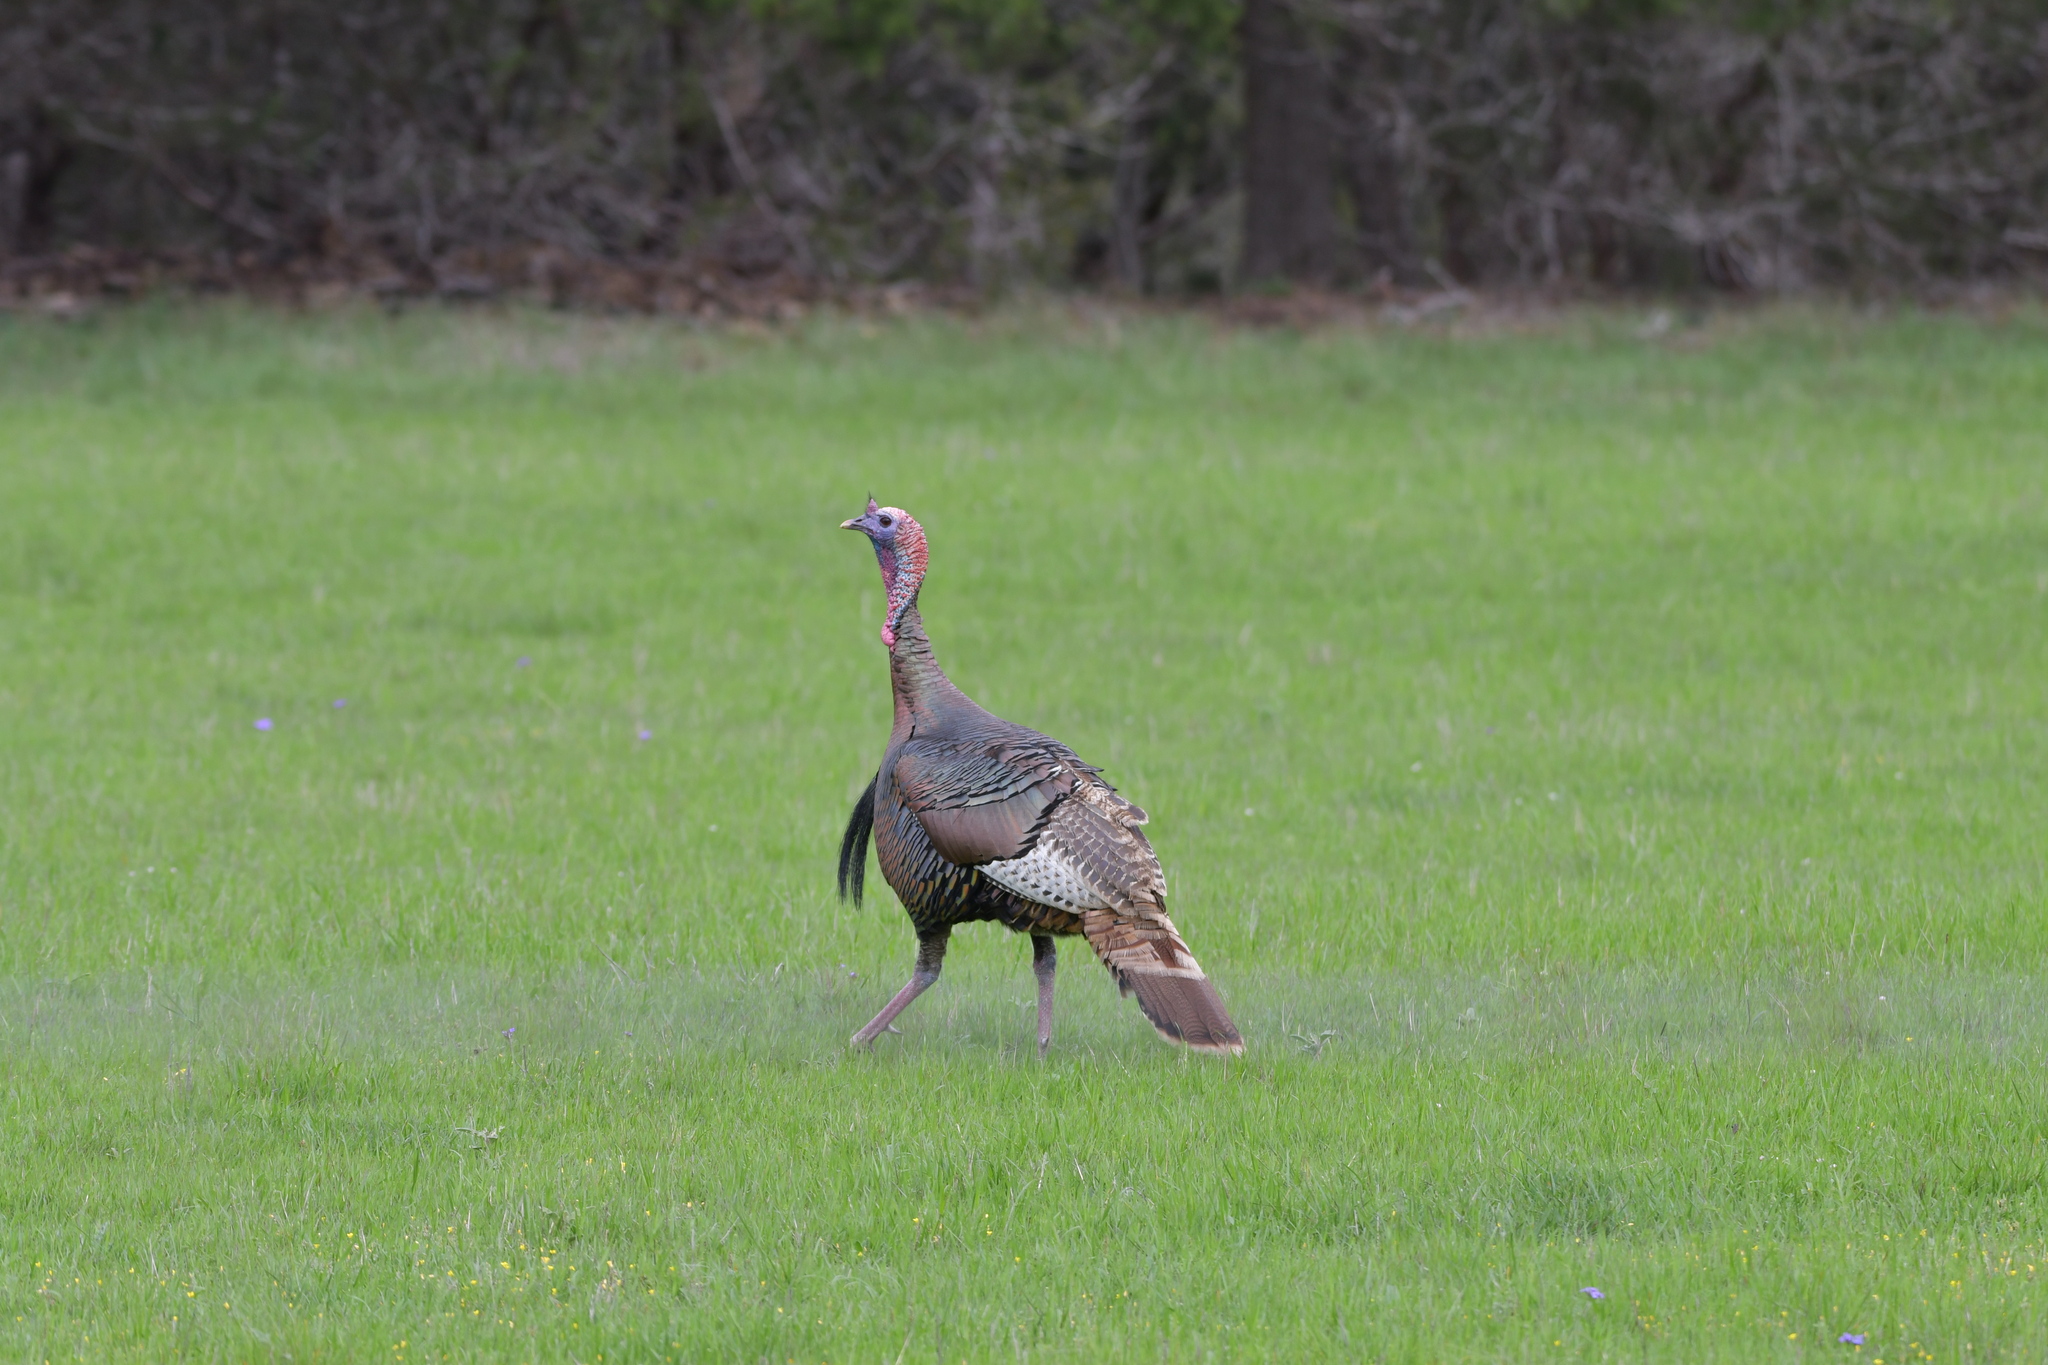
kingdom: Animalia
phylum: Chordata
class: Aves
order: Galliformes
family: Phasianidae
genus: Meleagris
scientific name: Meleagris gallopavo
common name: Wild turkey
